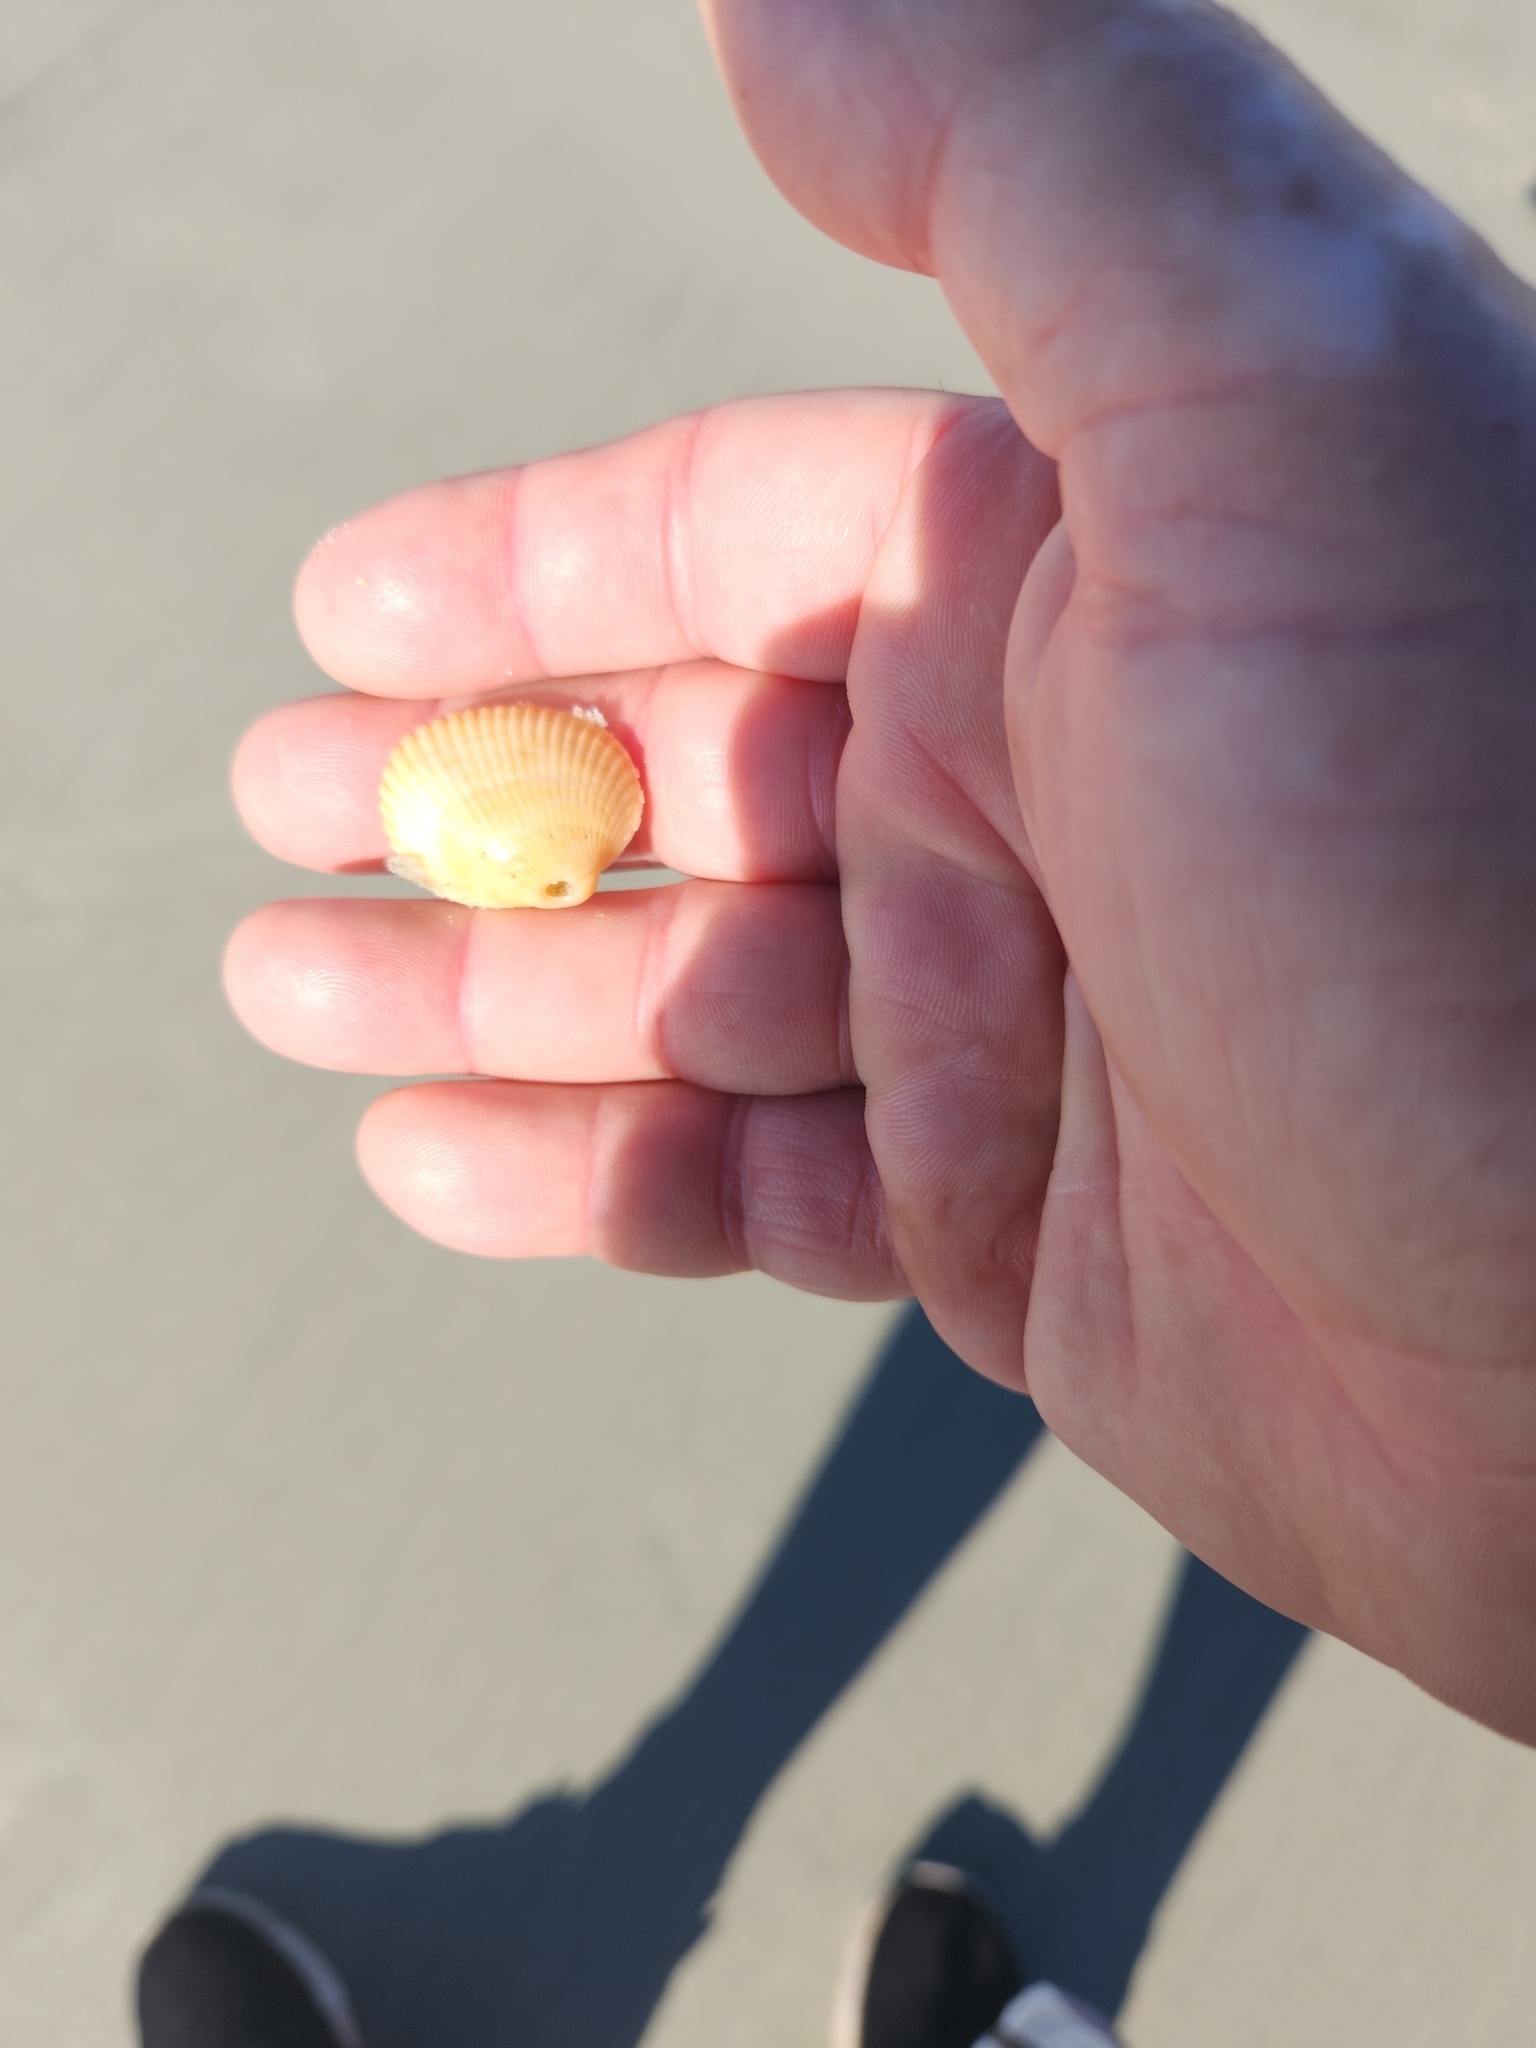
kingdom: Animalia
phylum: Mollusca
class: Bivalvia
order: Arcida
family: Arcidae
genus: Lunarca
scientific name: Lunarca ovalis
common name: Blood ark
